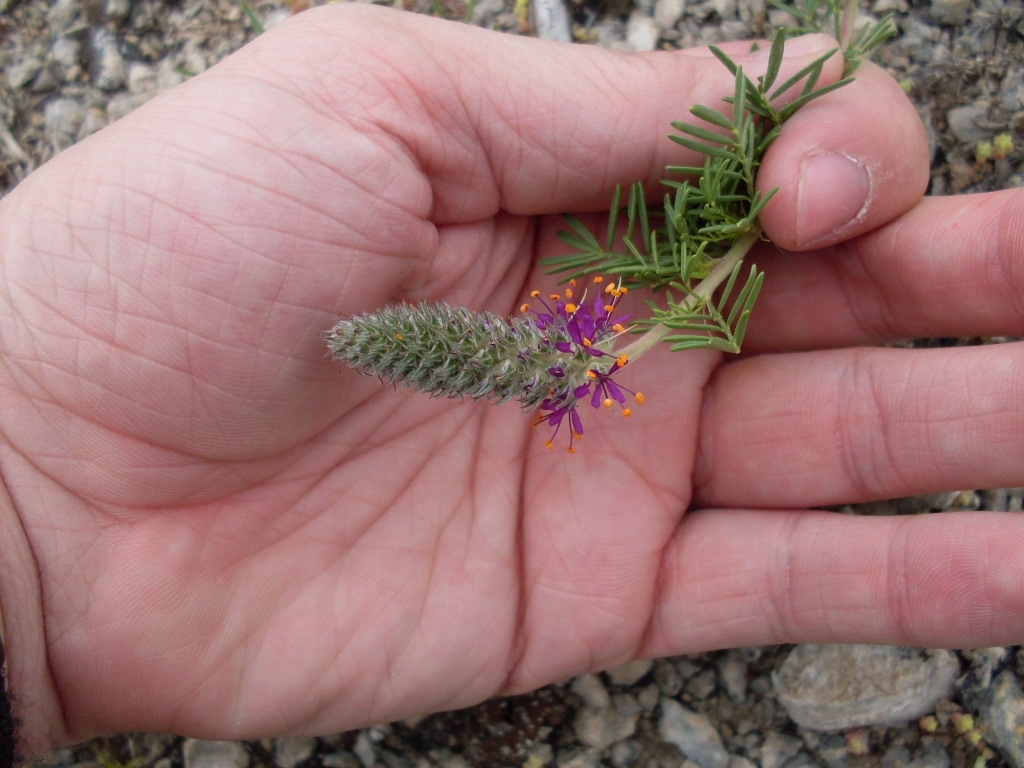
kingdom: Plantae
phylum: Tracheophyta
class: Magnoliopsida
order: Fabales
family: Fabaceae
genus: Dalea
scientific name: Dalea reverchonii
